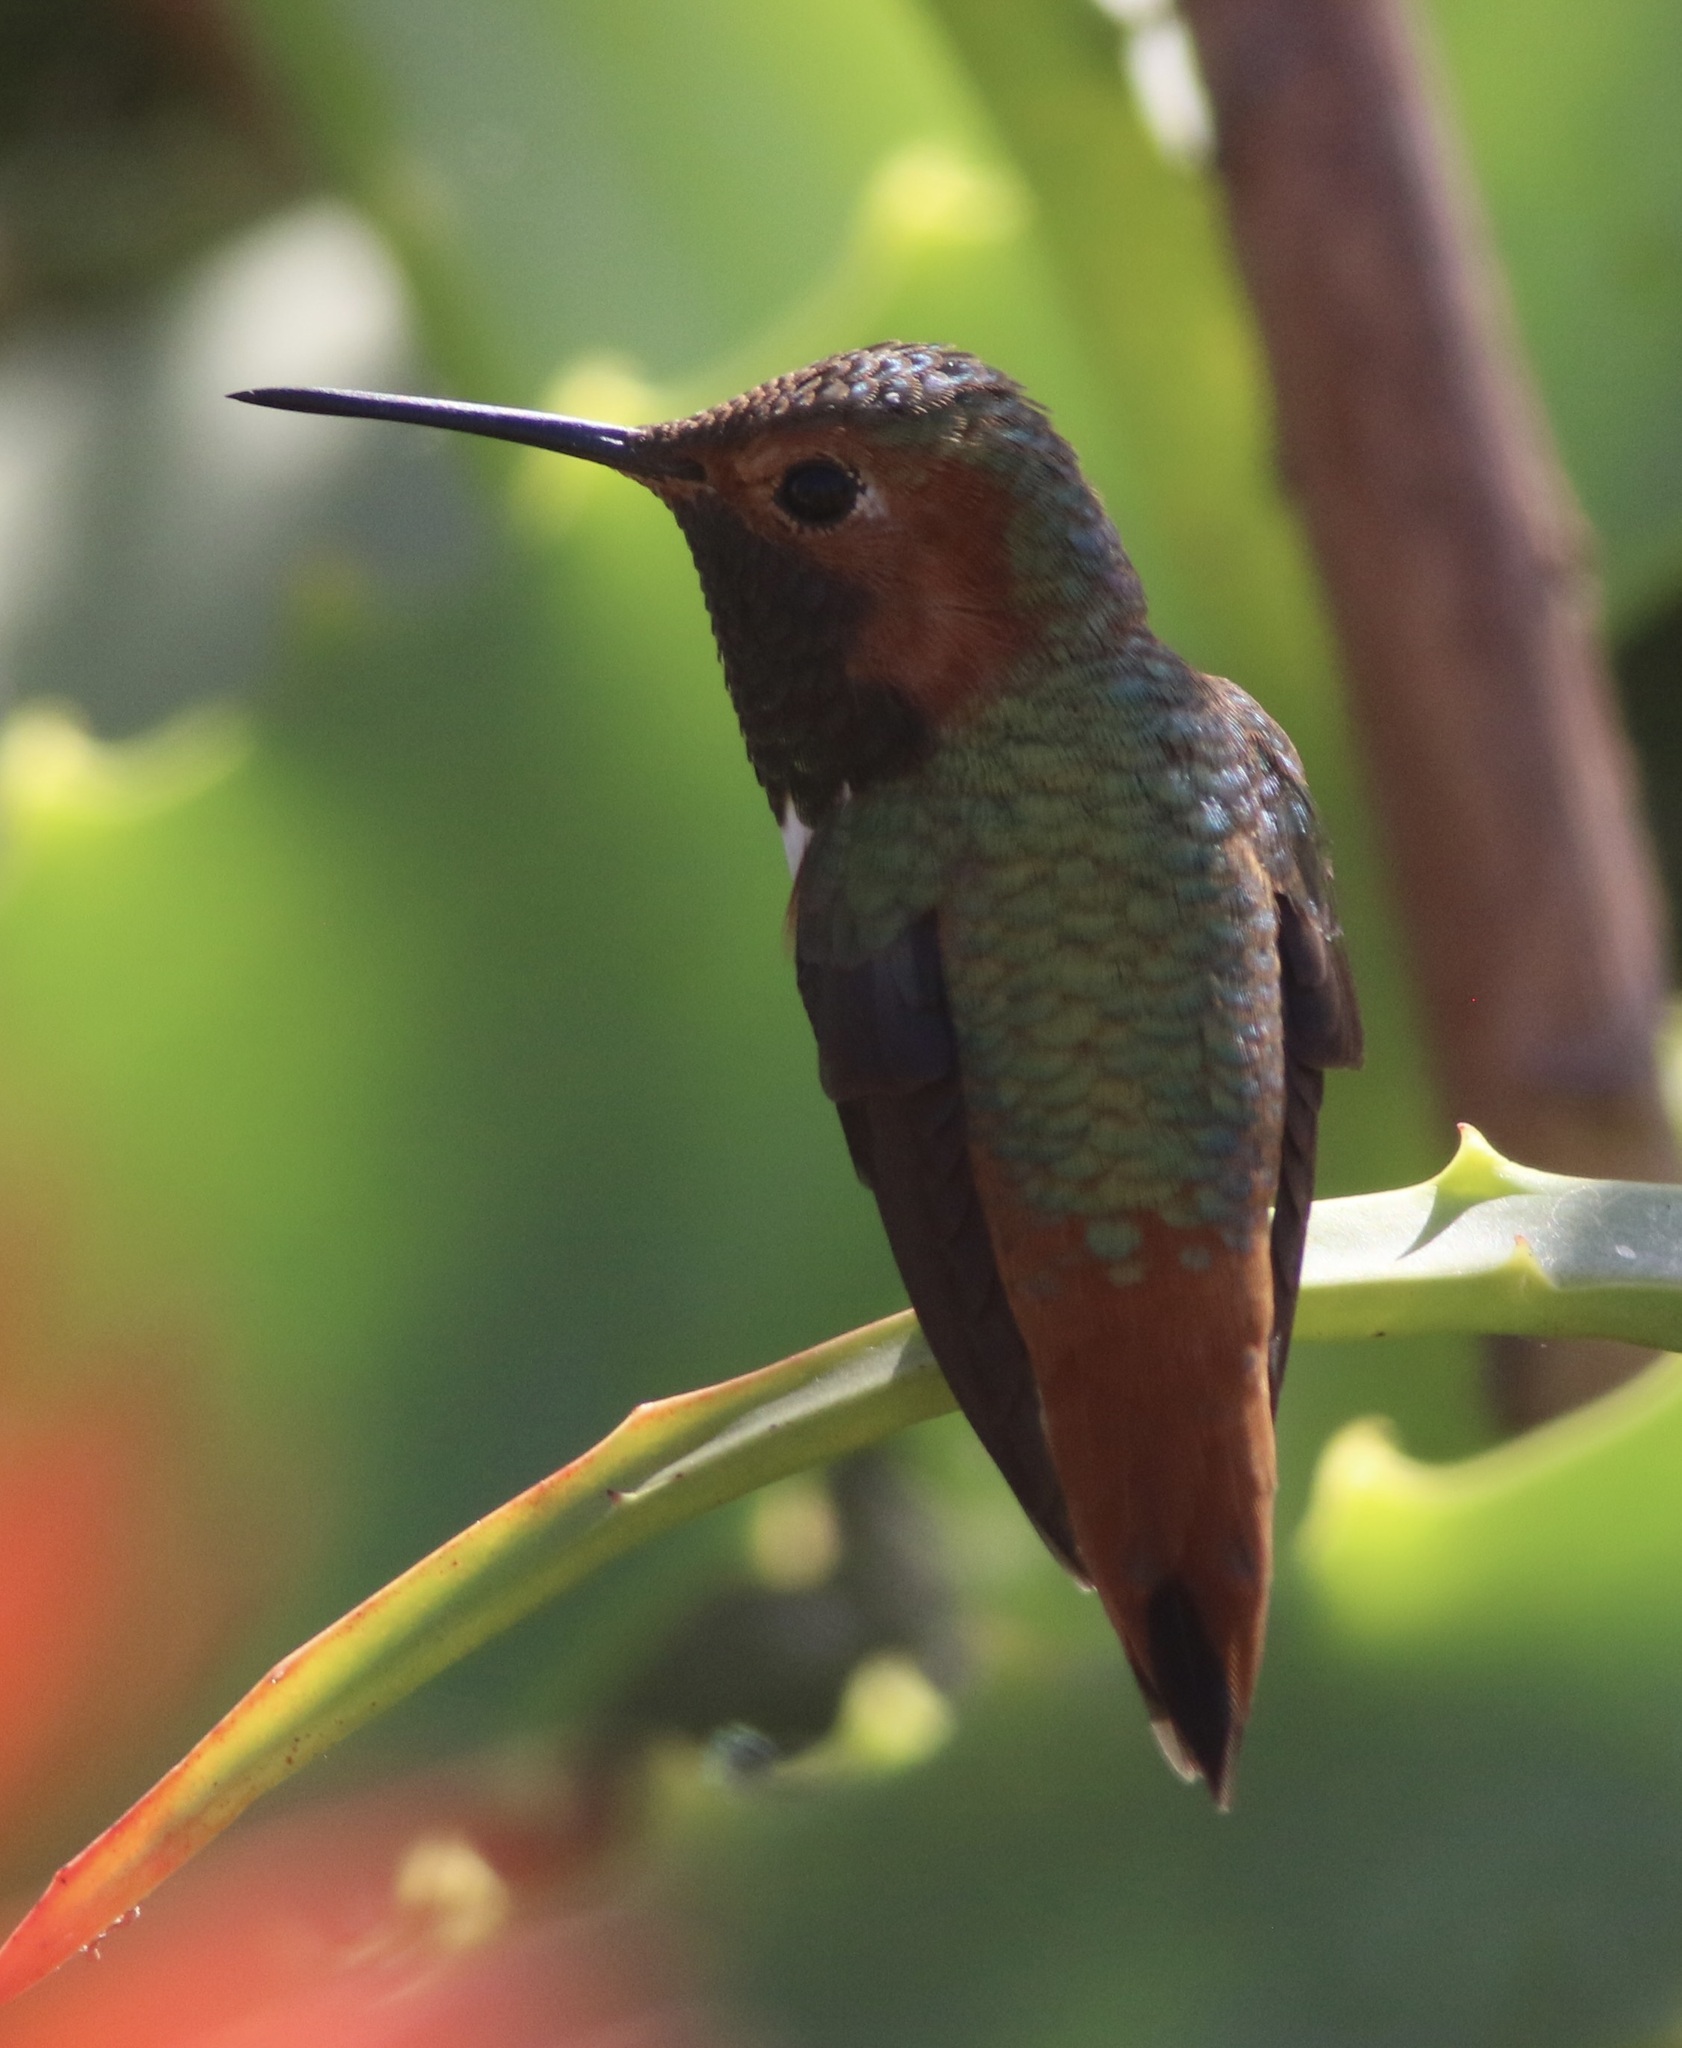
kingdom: Animalia
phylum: Chordata
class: Aves
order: Apodiformes
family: Trochilidae
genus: Selasphorus
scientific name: Selasphorus sasin
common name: Allen's hummingbird
